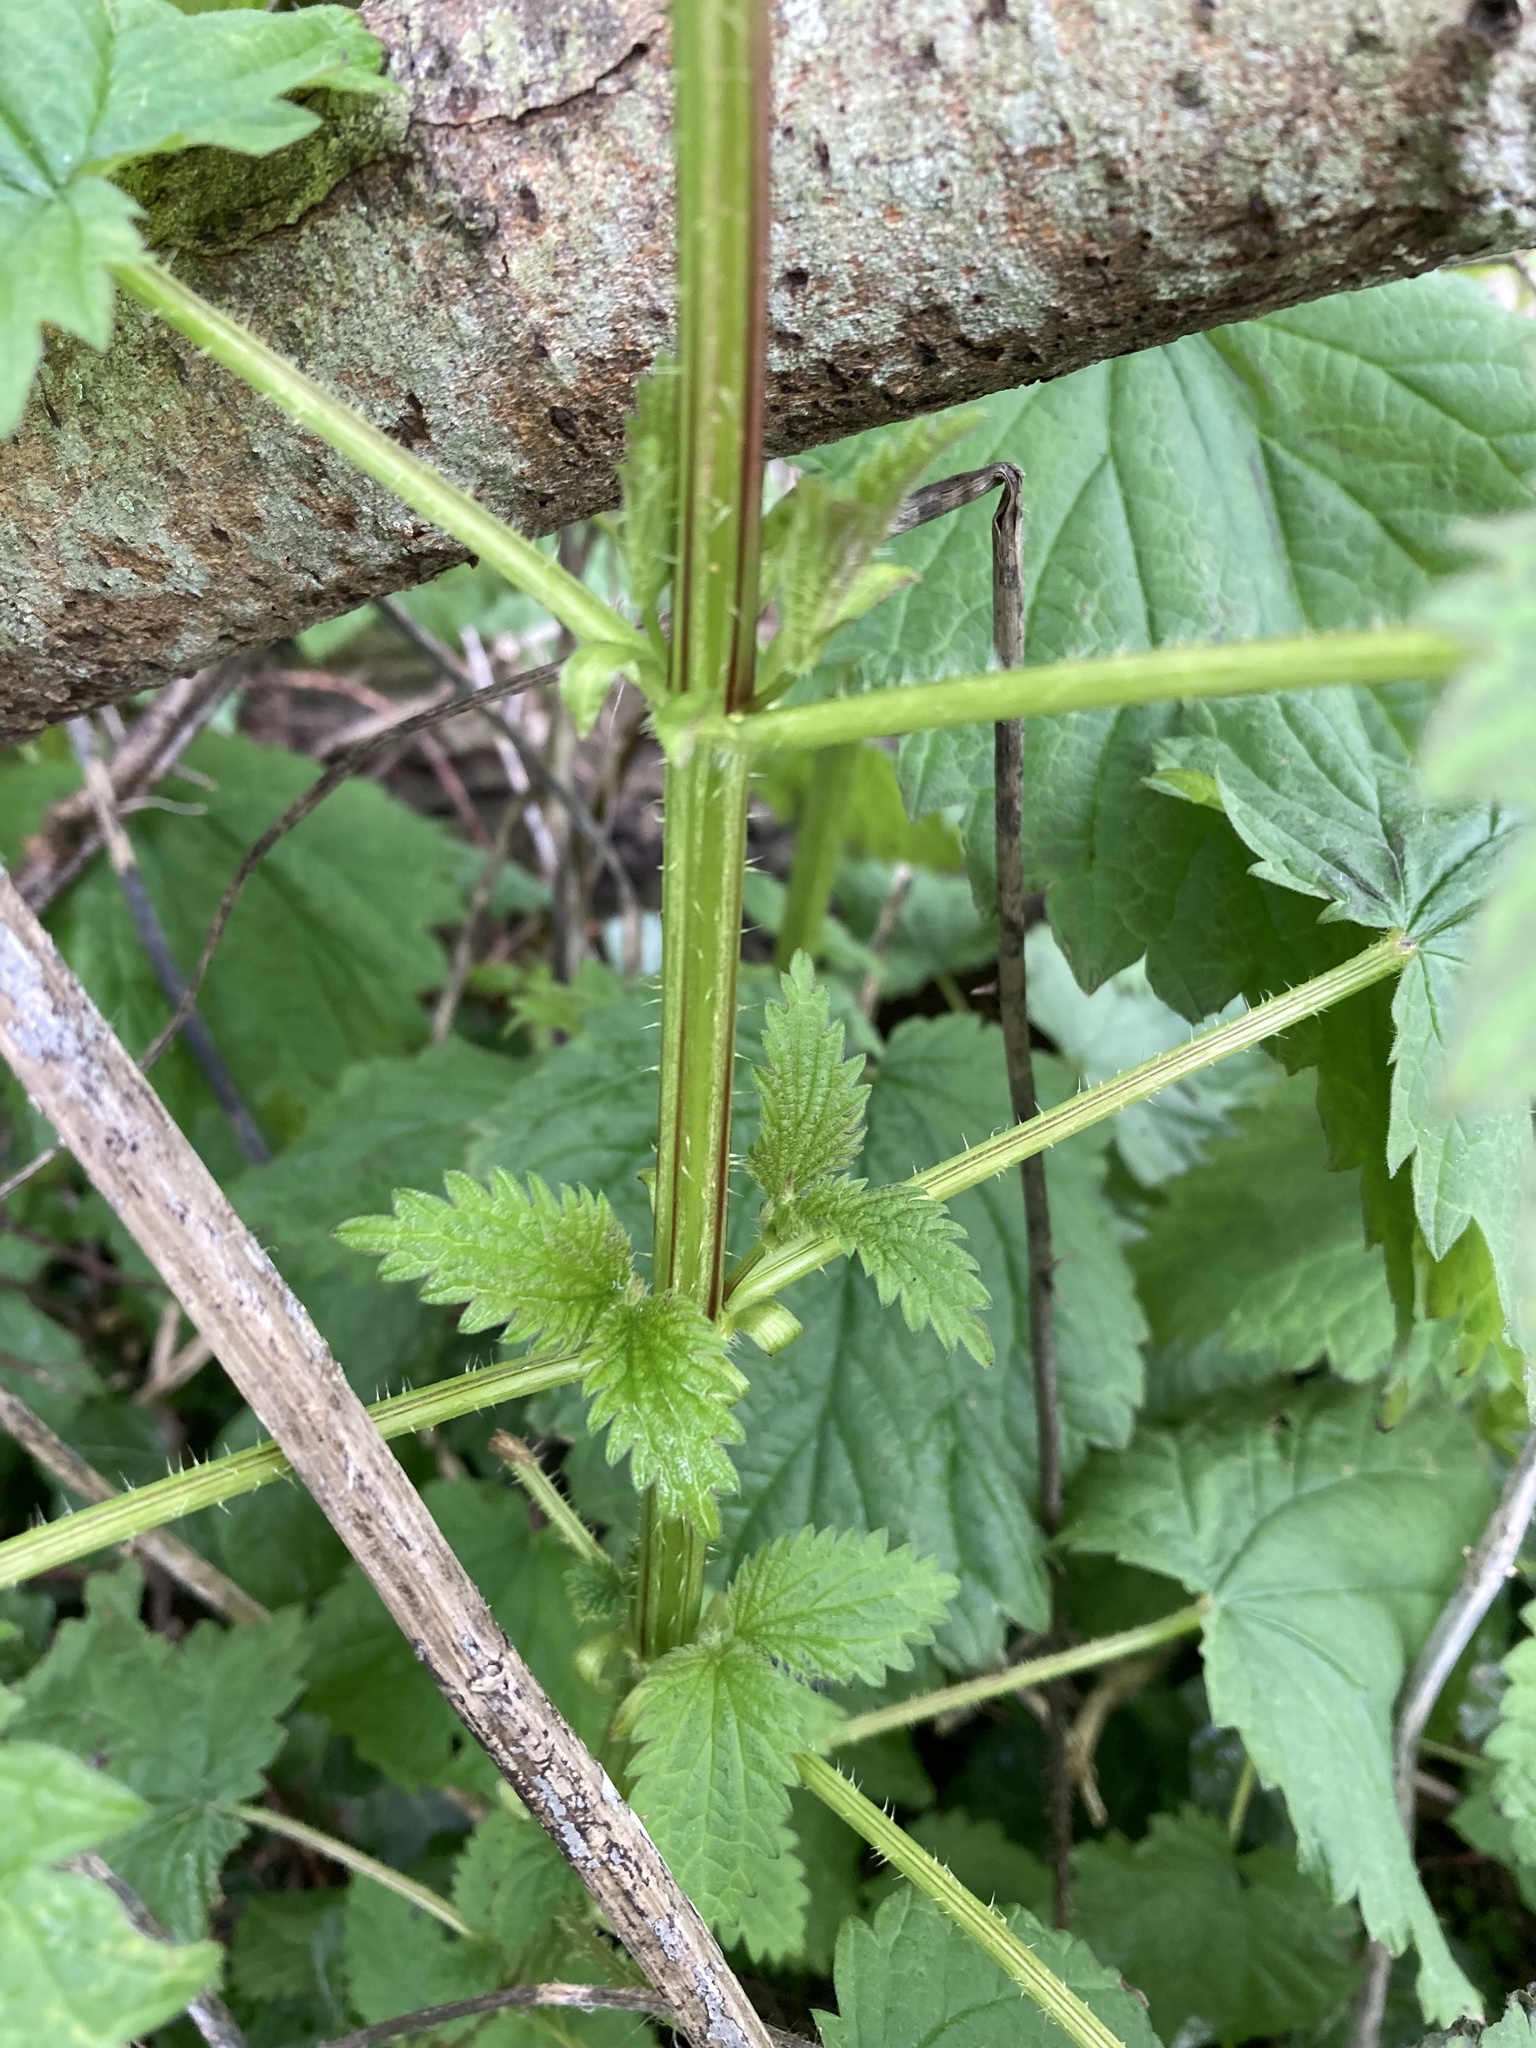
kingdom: Plantae
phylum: Tracheophyta
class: Magnoliopsida
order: Rosales
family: Urticaceae
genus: Urtica
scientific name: Urtica dioica
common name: Common nettle
